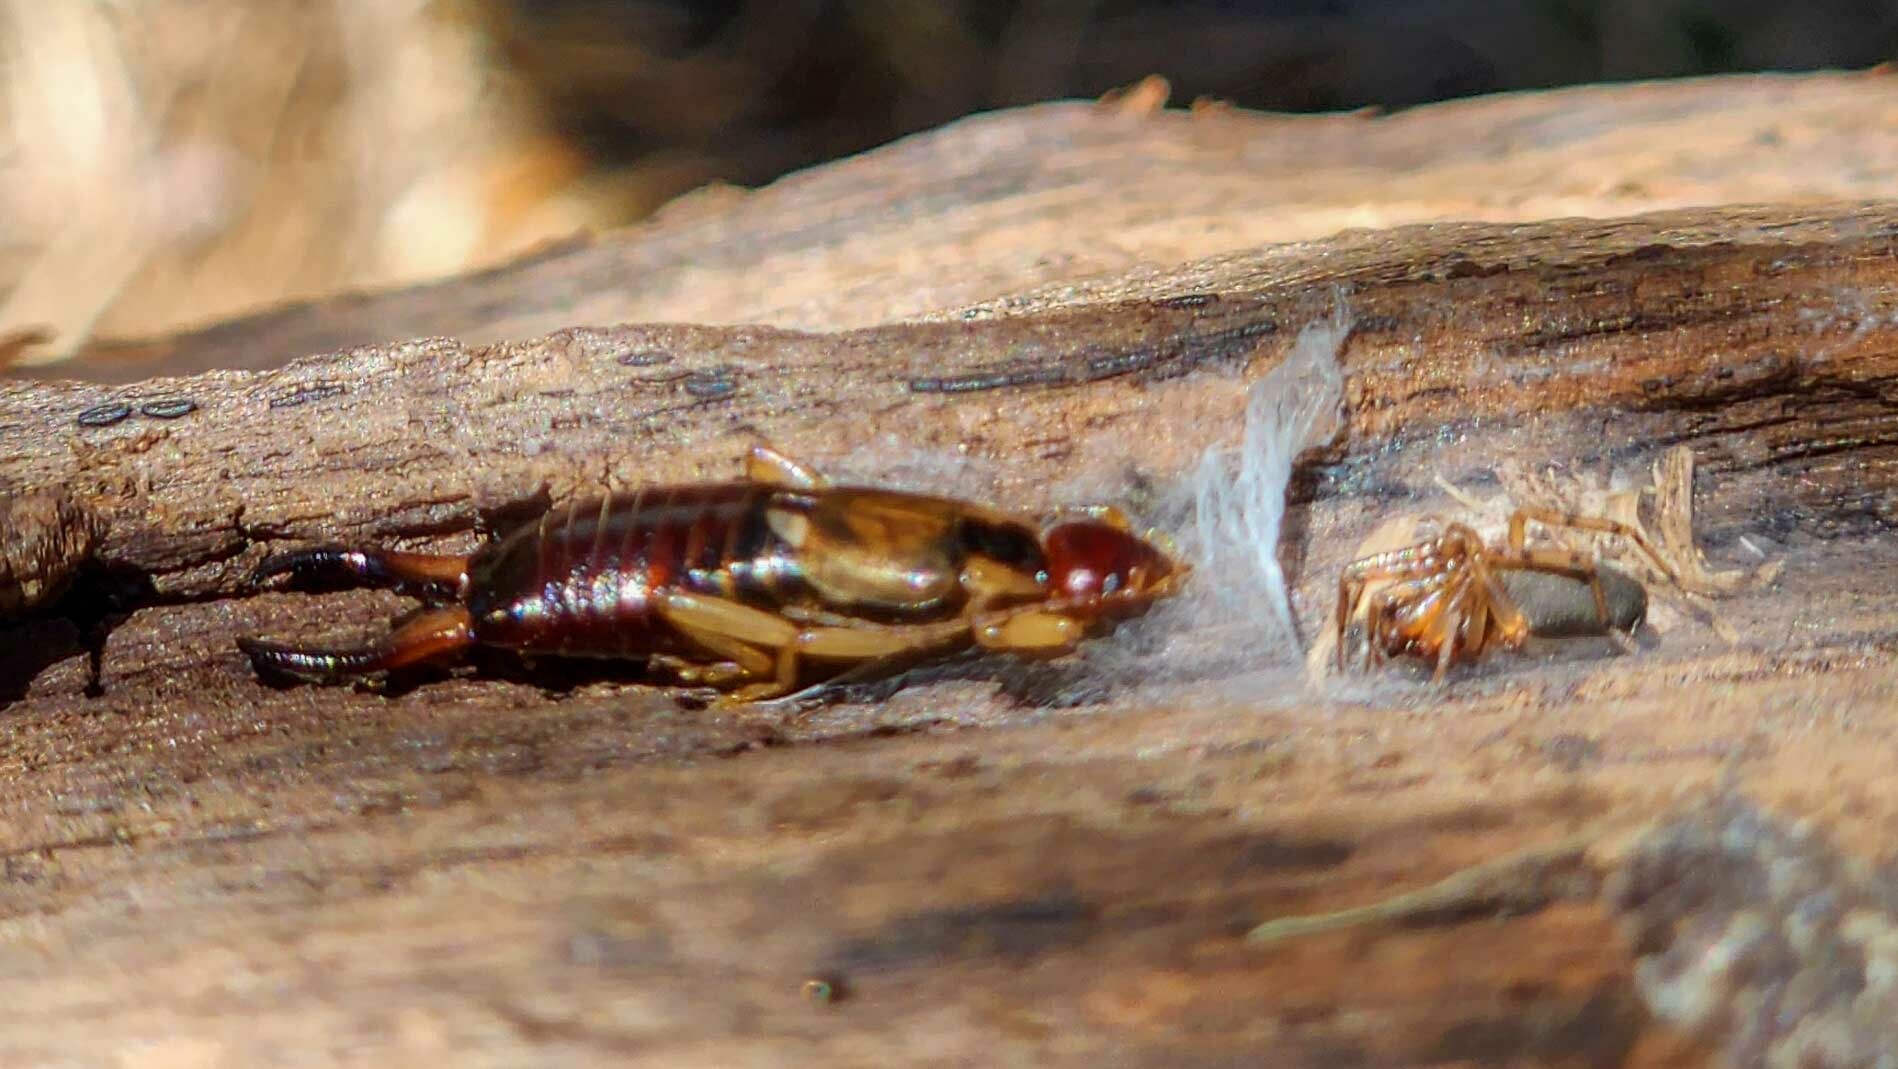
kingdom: Animalia
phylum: Arthropoda
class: Insecta
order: Dermaptera
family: Forficulidae
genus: Forficula
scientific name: Forficula
